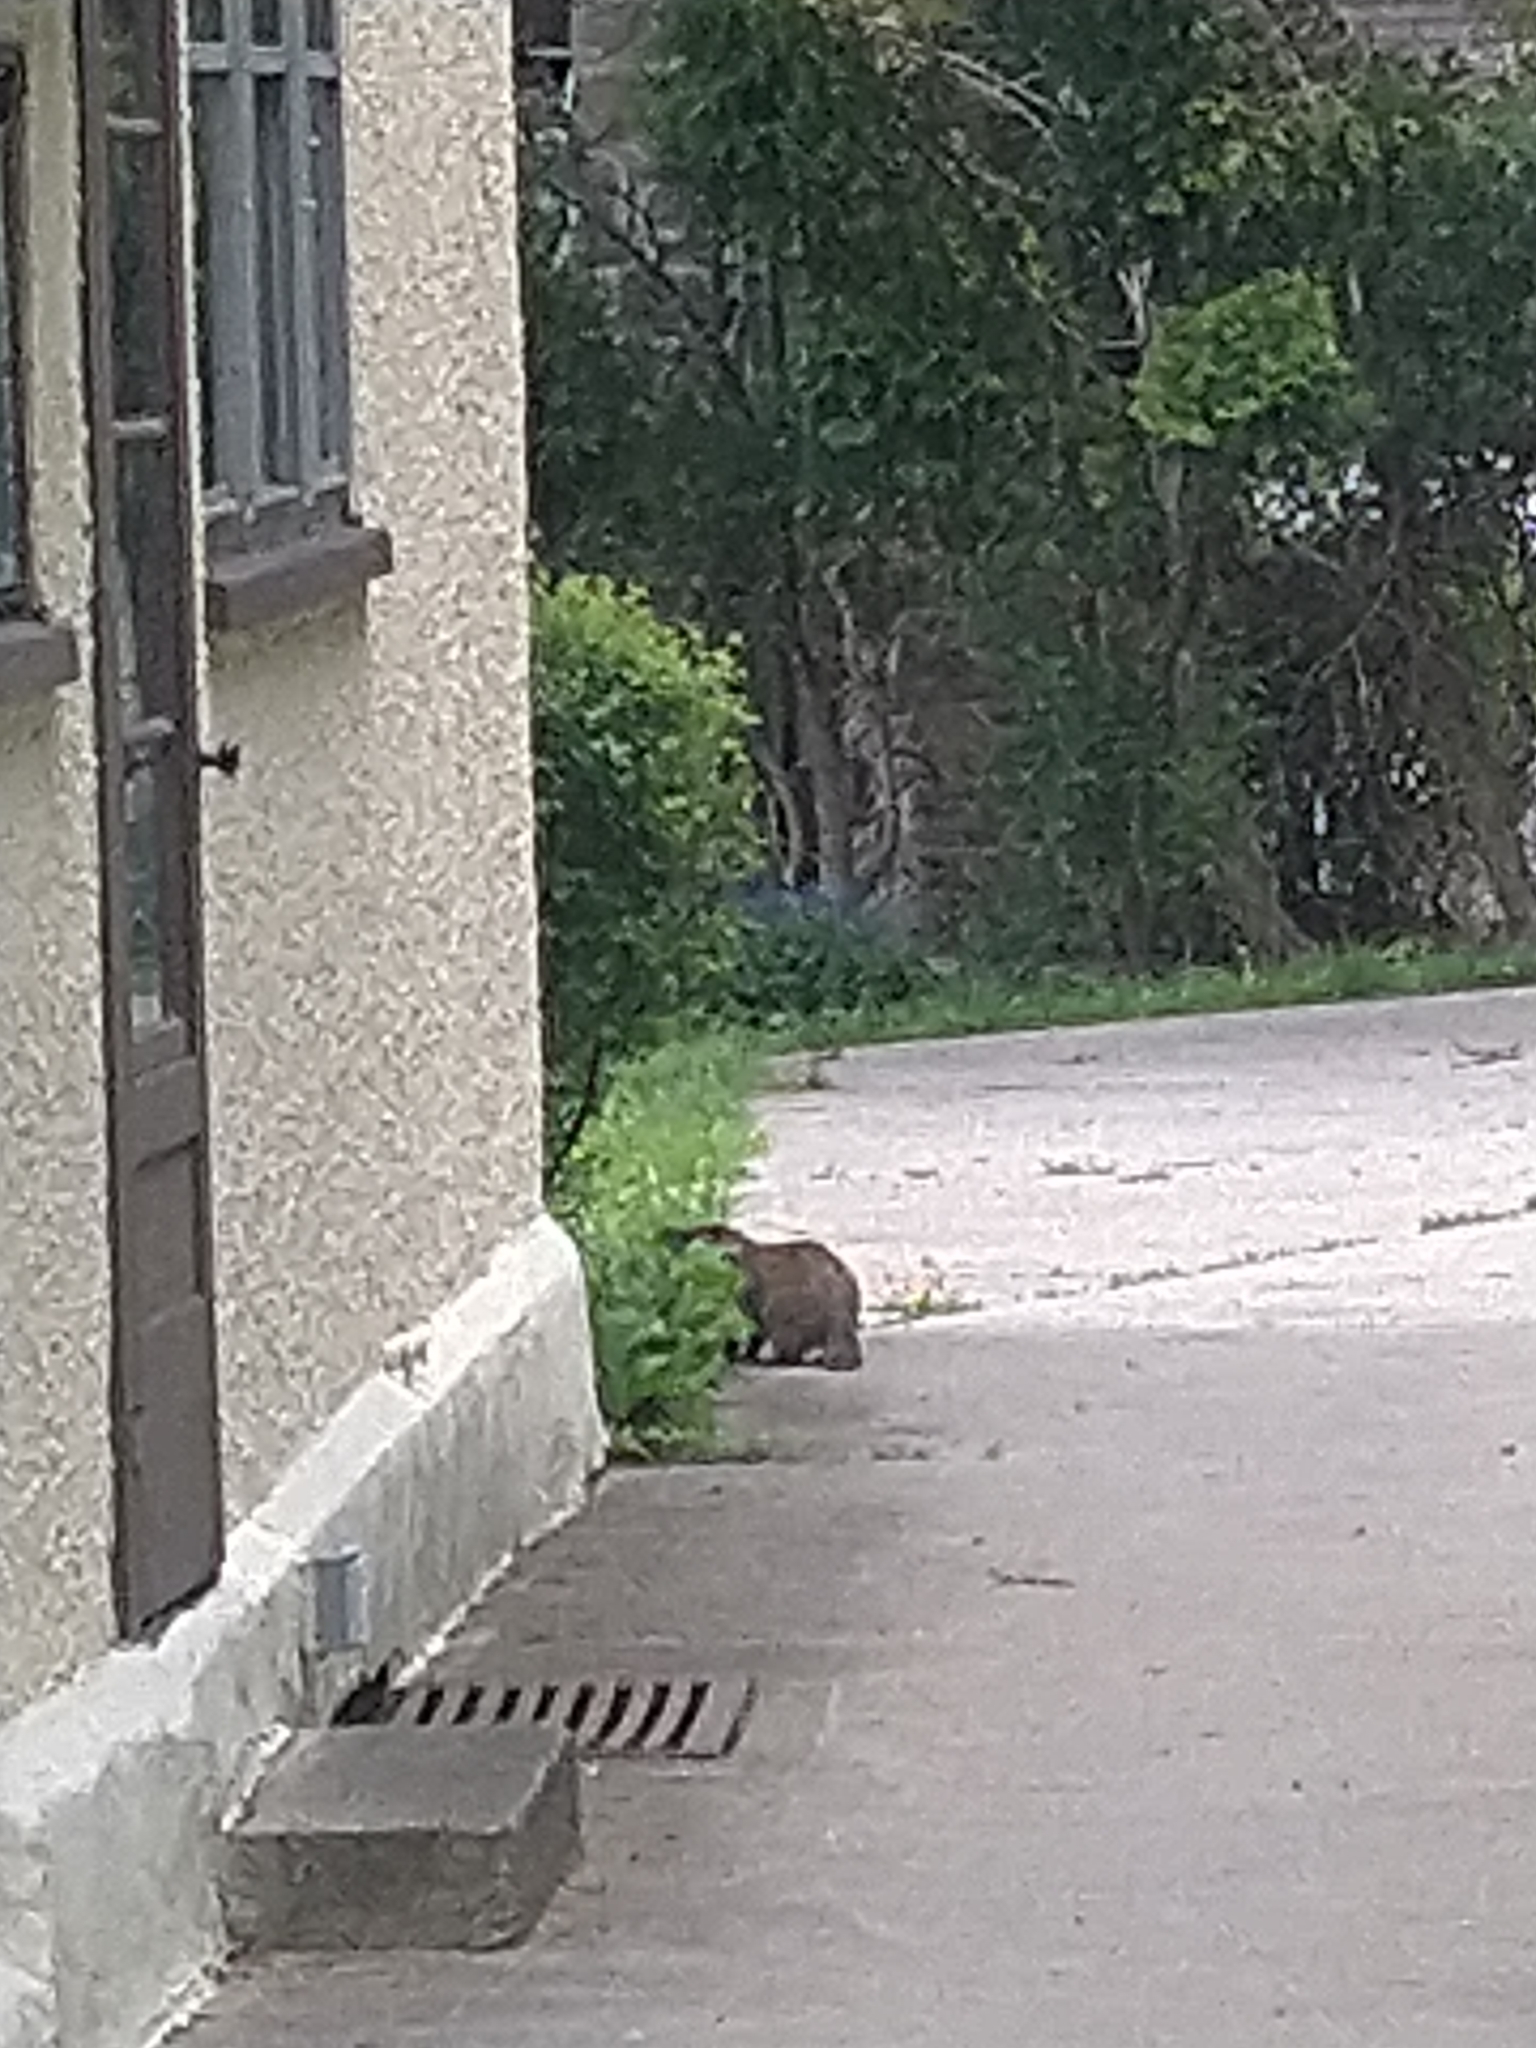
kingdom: Animalia
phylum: Chordata
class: Mammalia
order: Rodentia
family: Sciuridae
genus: Marmota
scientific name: Marmota monax
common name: Groundhog
